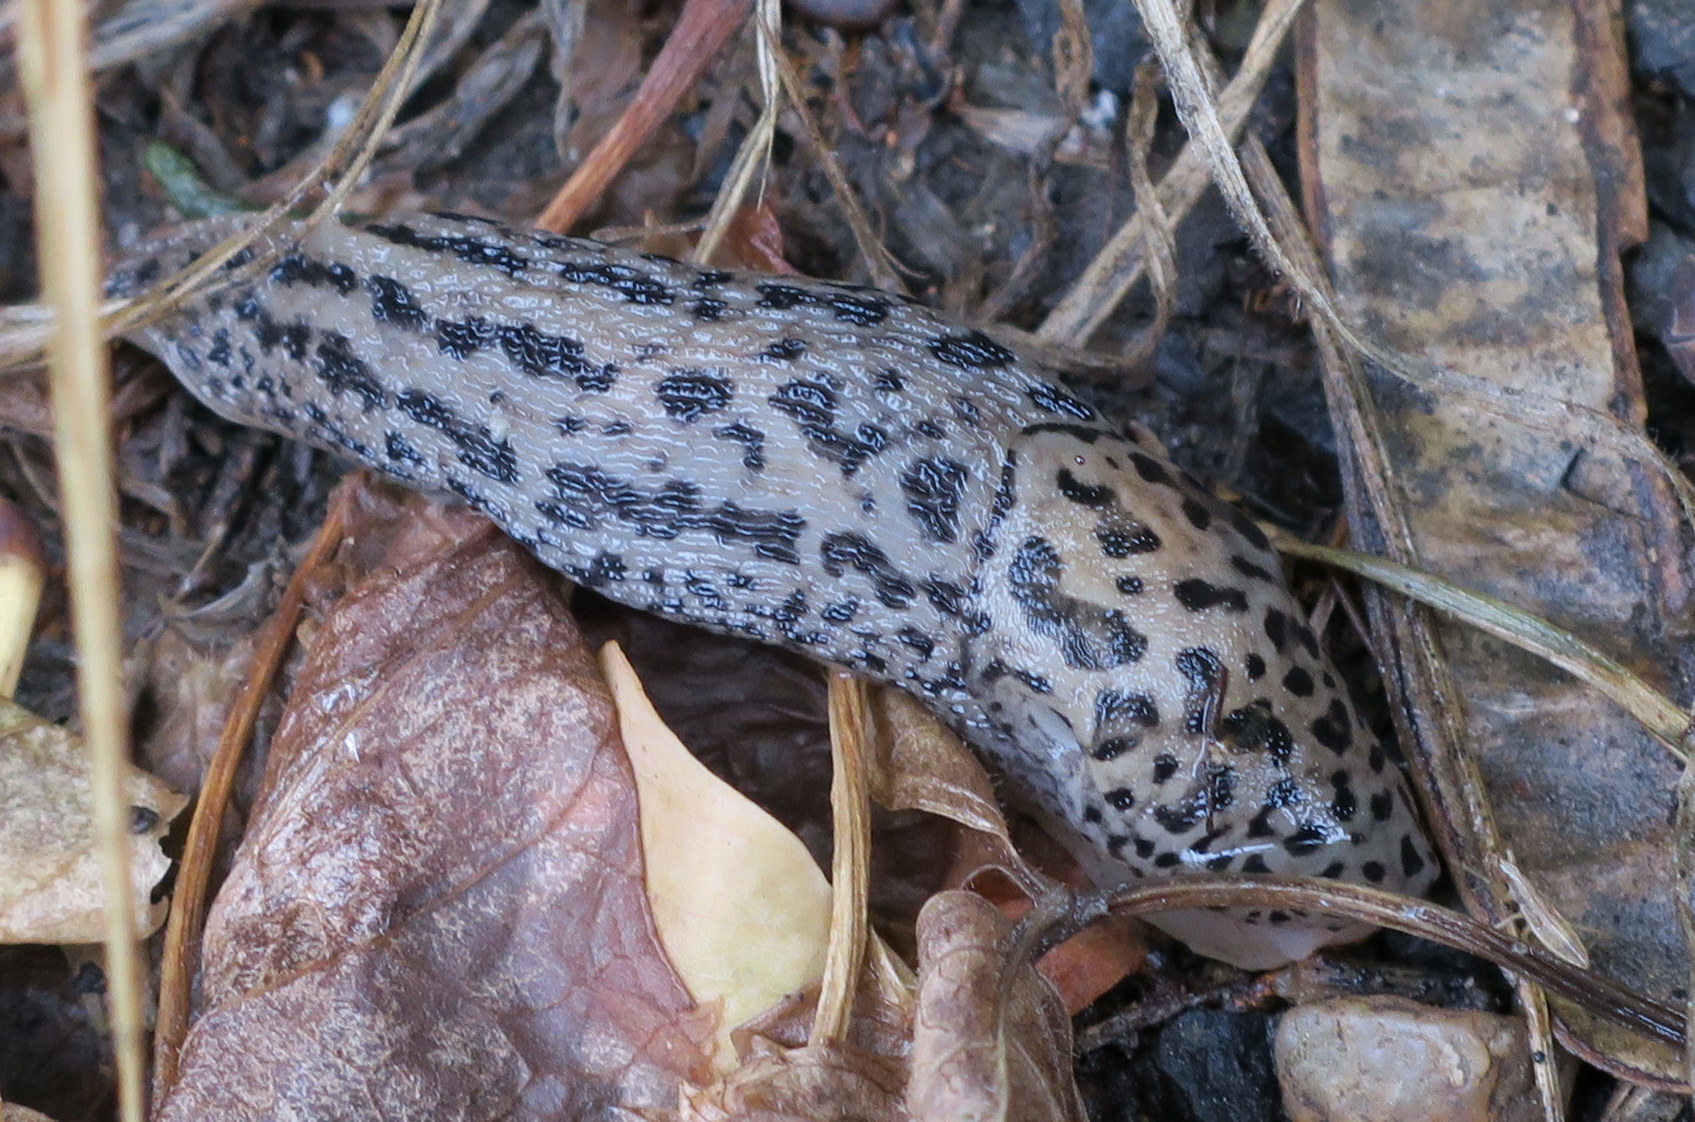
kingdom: Animalia
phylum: Mollusca
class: Gastropoda
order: Stylommatophora
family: Limacidae
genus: Limax
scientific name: Limax maximus
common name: Great grey slug
